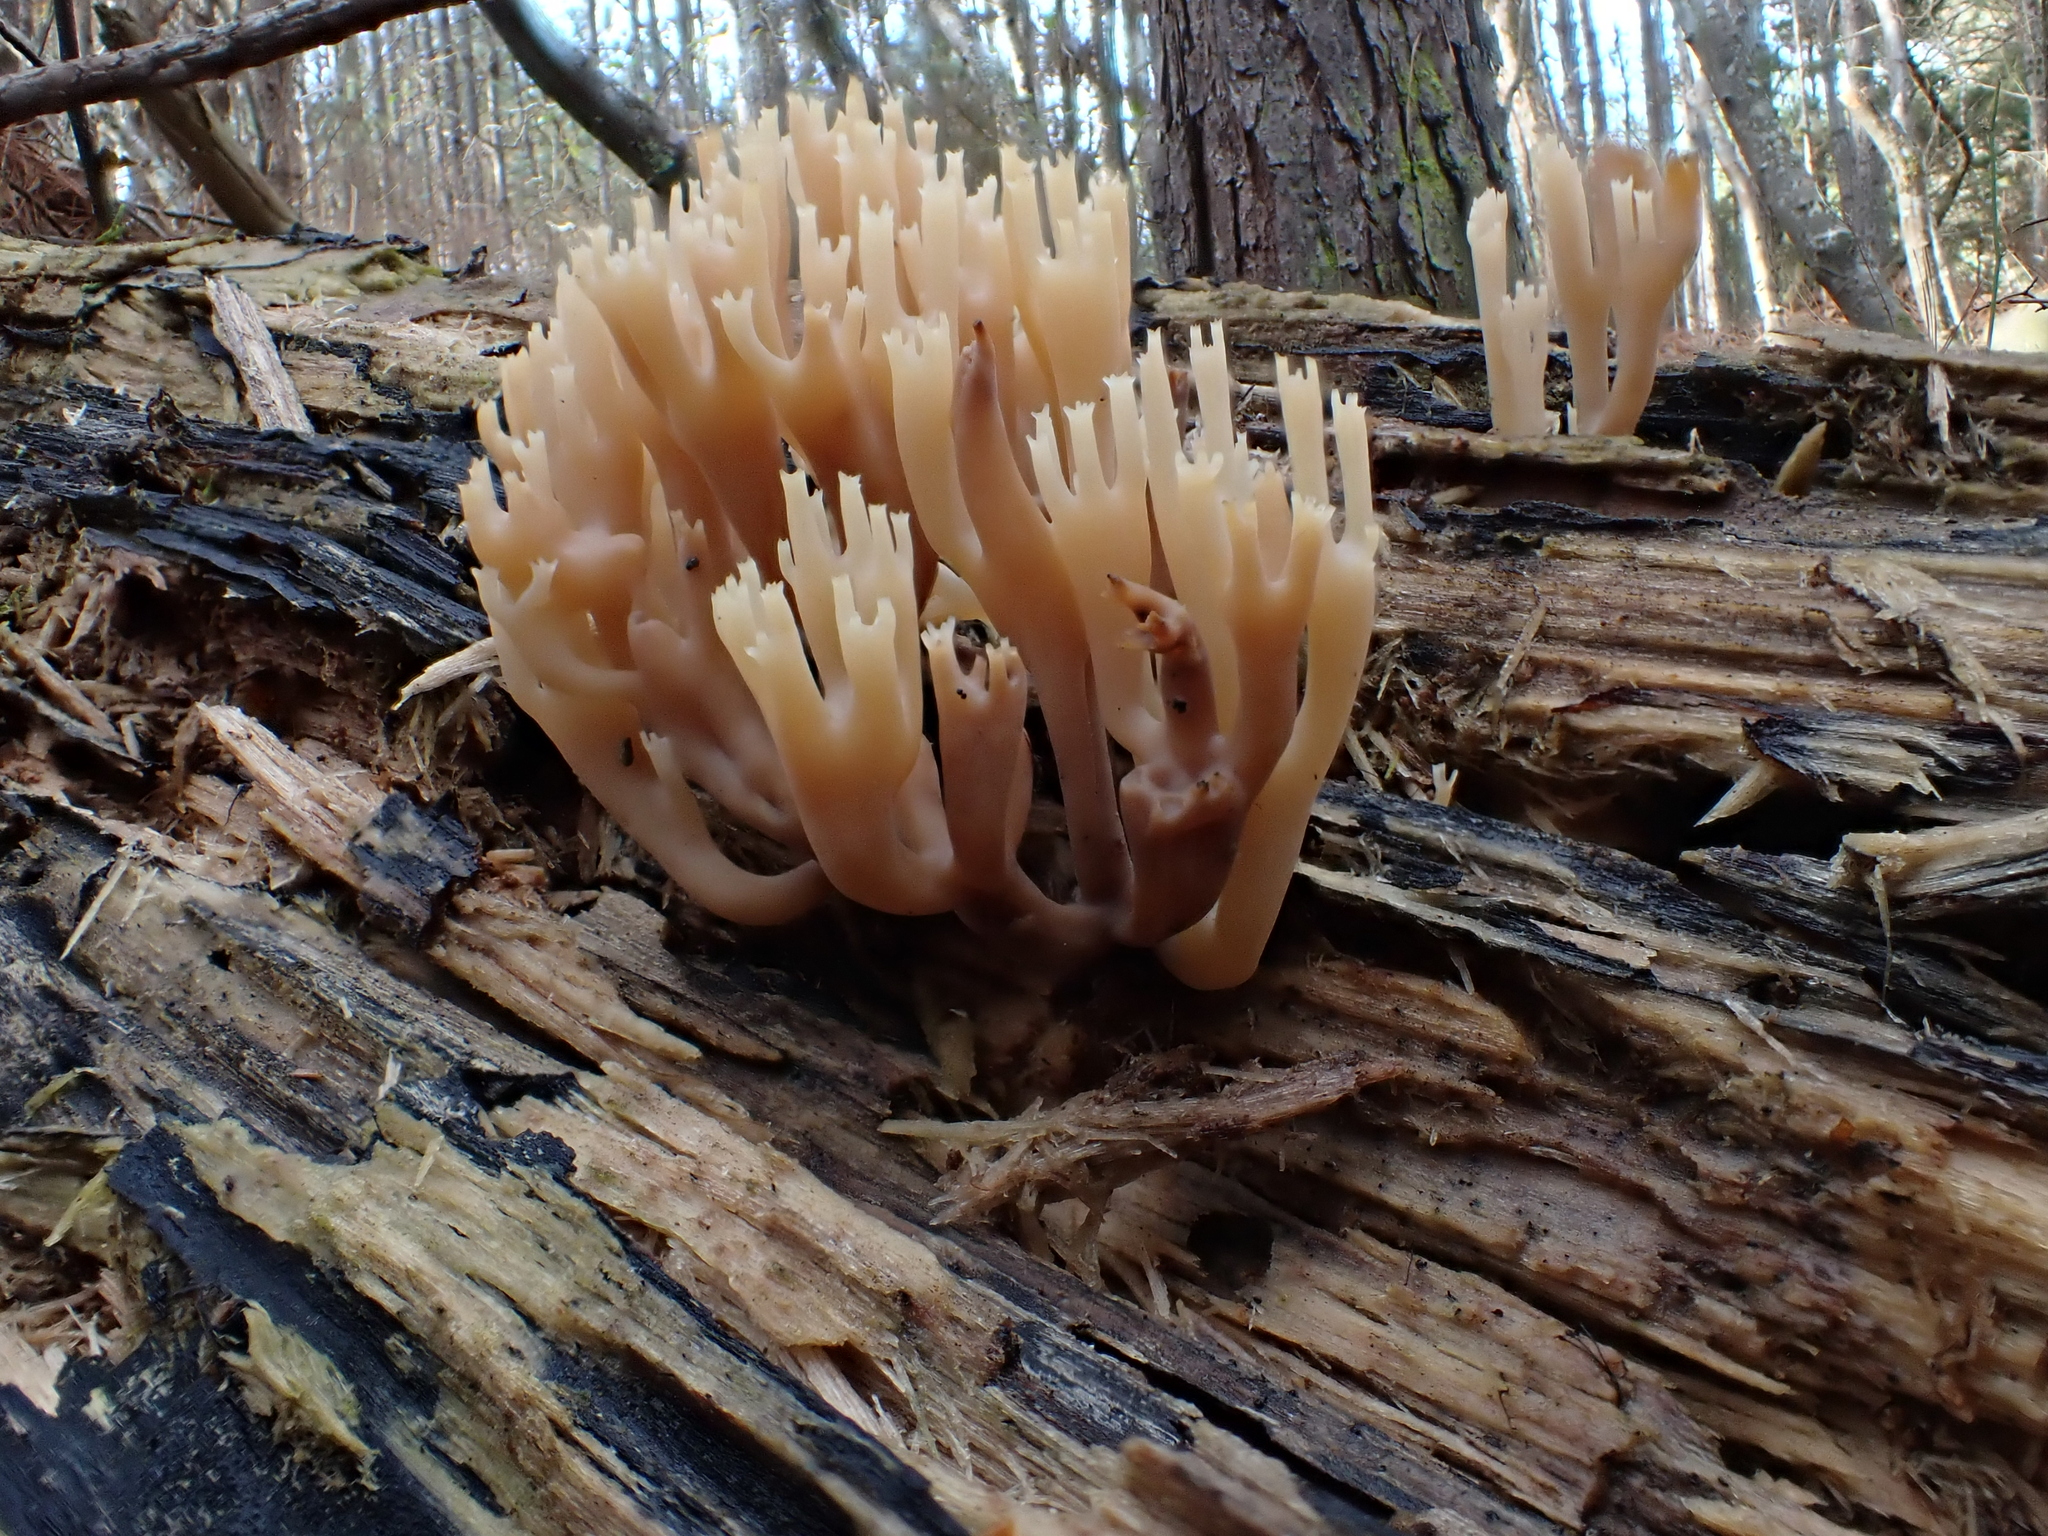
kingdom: Fungi
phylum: Basidiomycota
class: Agaricomycetes
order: Russulales
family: Auriscalpiaceae
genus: Artomyces
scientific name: Artomyces pyxidatus
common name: Crown-tipped coral fungus
